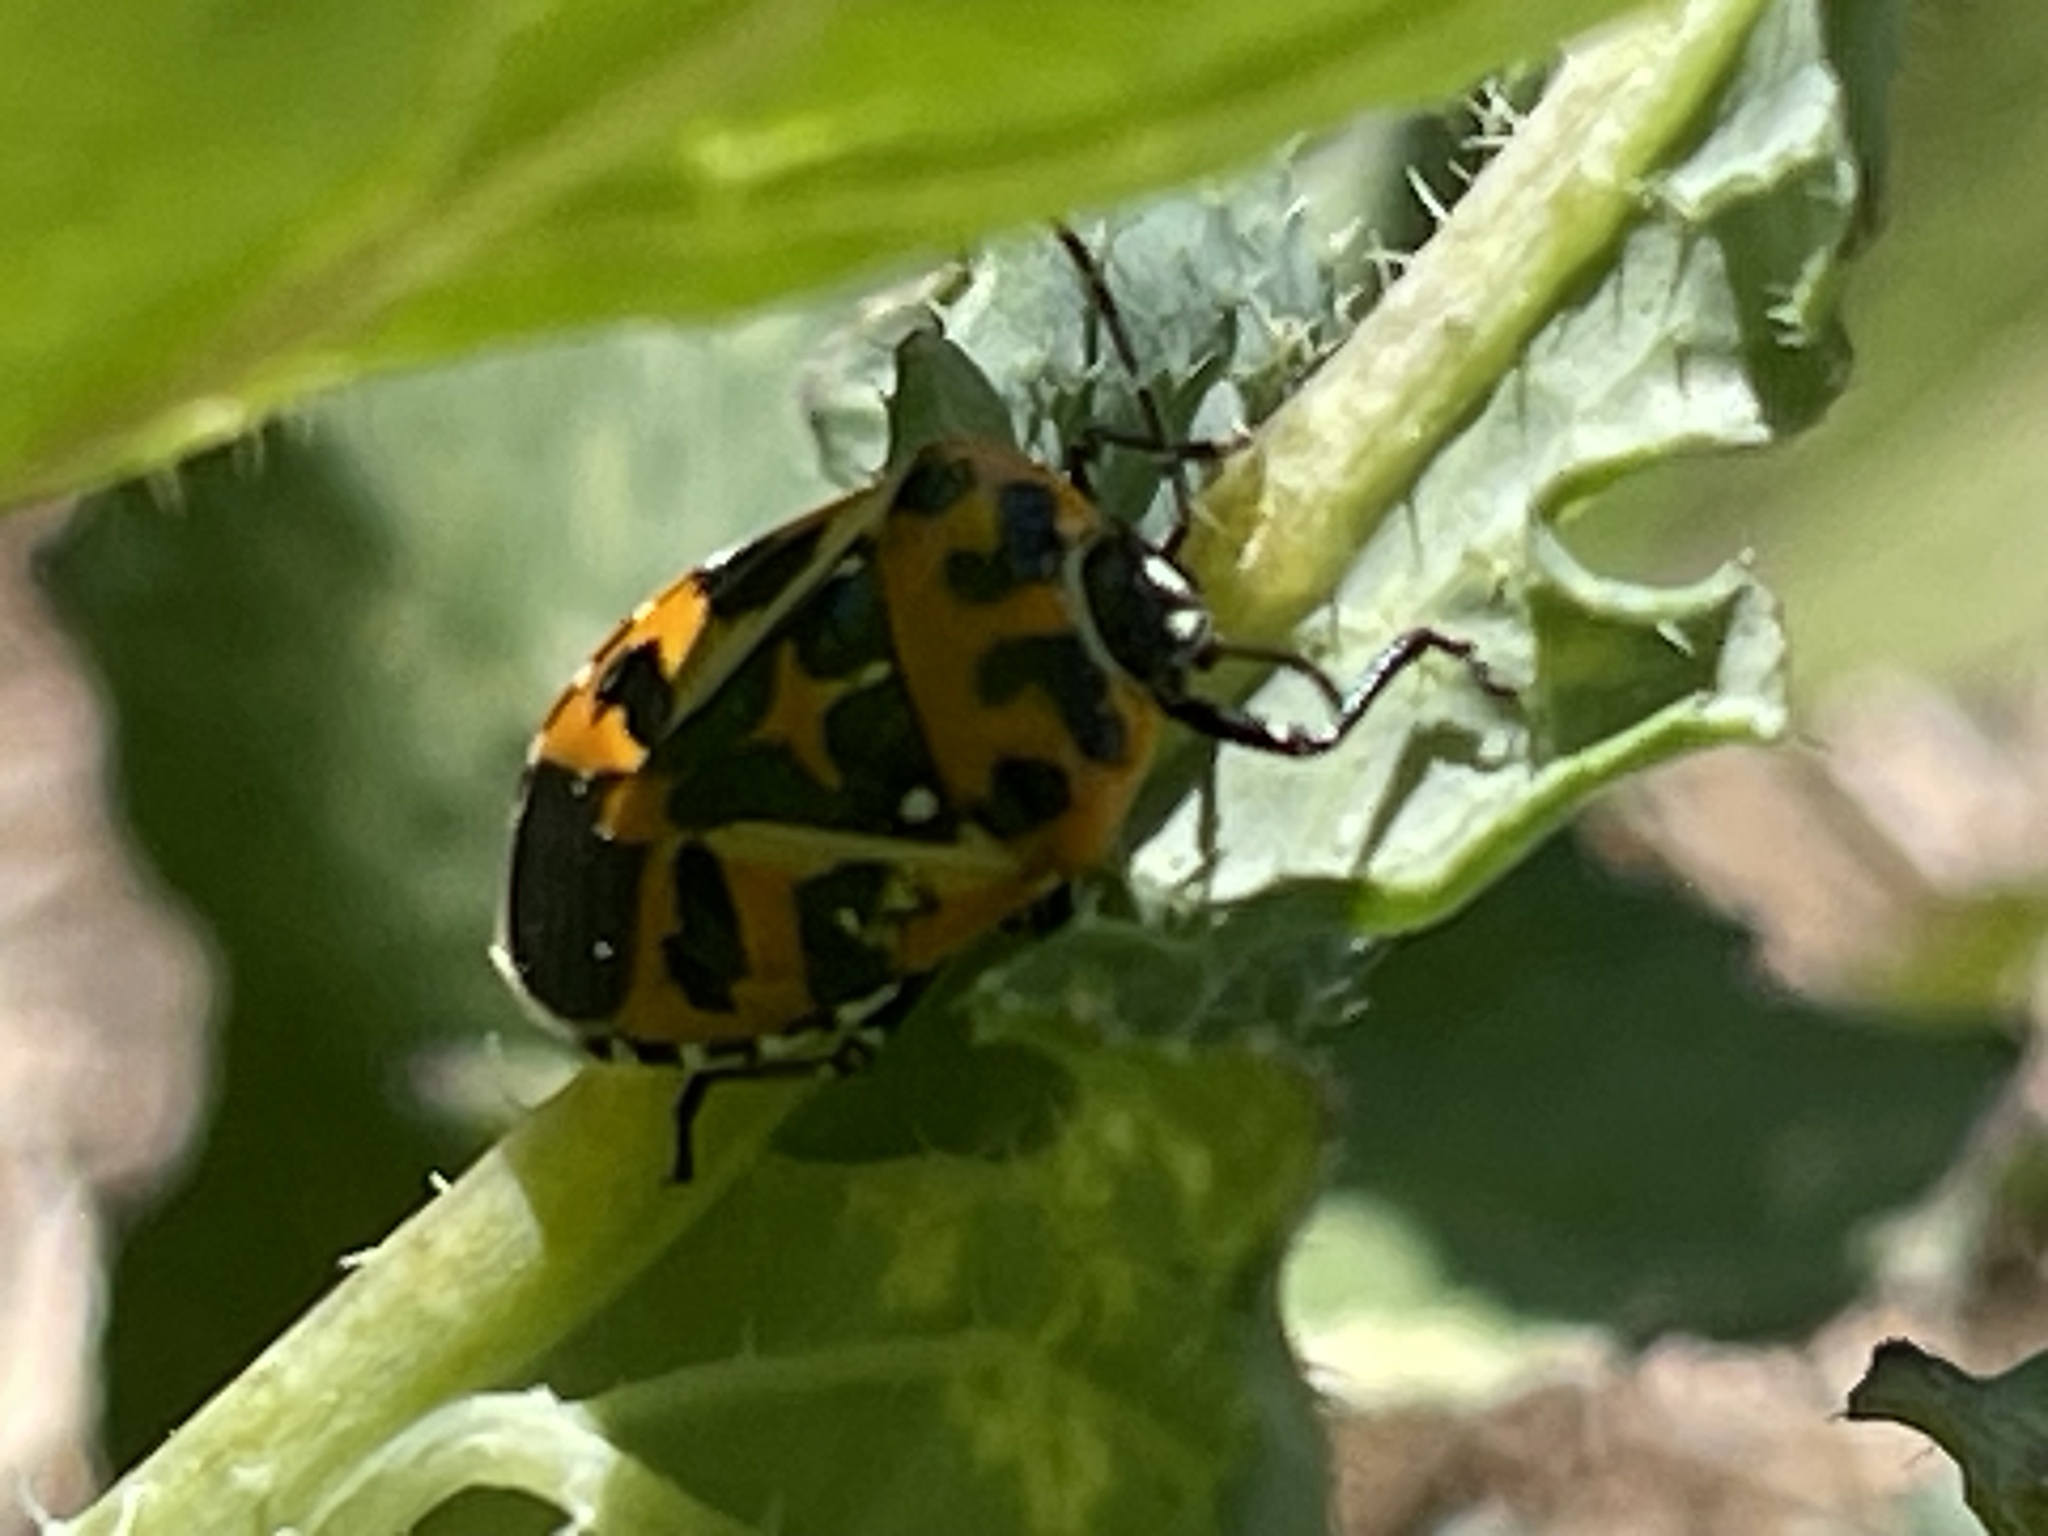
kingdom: Animalia
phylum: Arthropoda
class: Insecta
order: Hemiptera
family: Pentatomidae
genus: Murgantia
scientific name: Murgantia histrionica
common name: Harlequin bug
